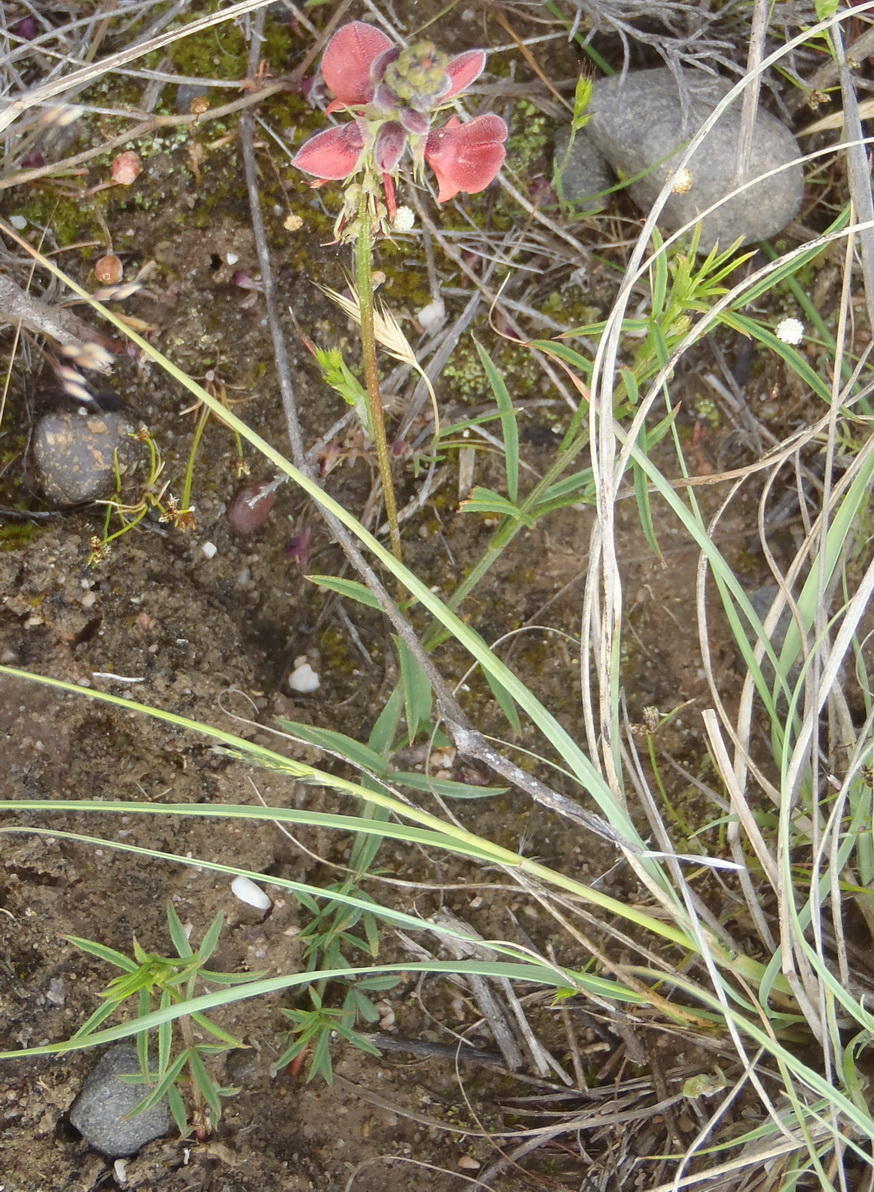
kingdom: Plantae
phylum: Tracheophyta
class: Magnoliopsida
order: Fabales
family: Fabaceae
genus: Indigofera
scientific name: Indigofera heterophylla
